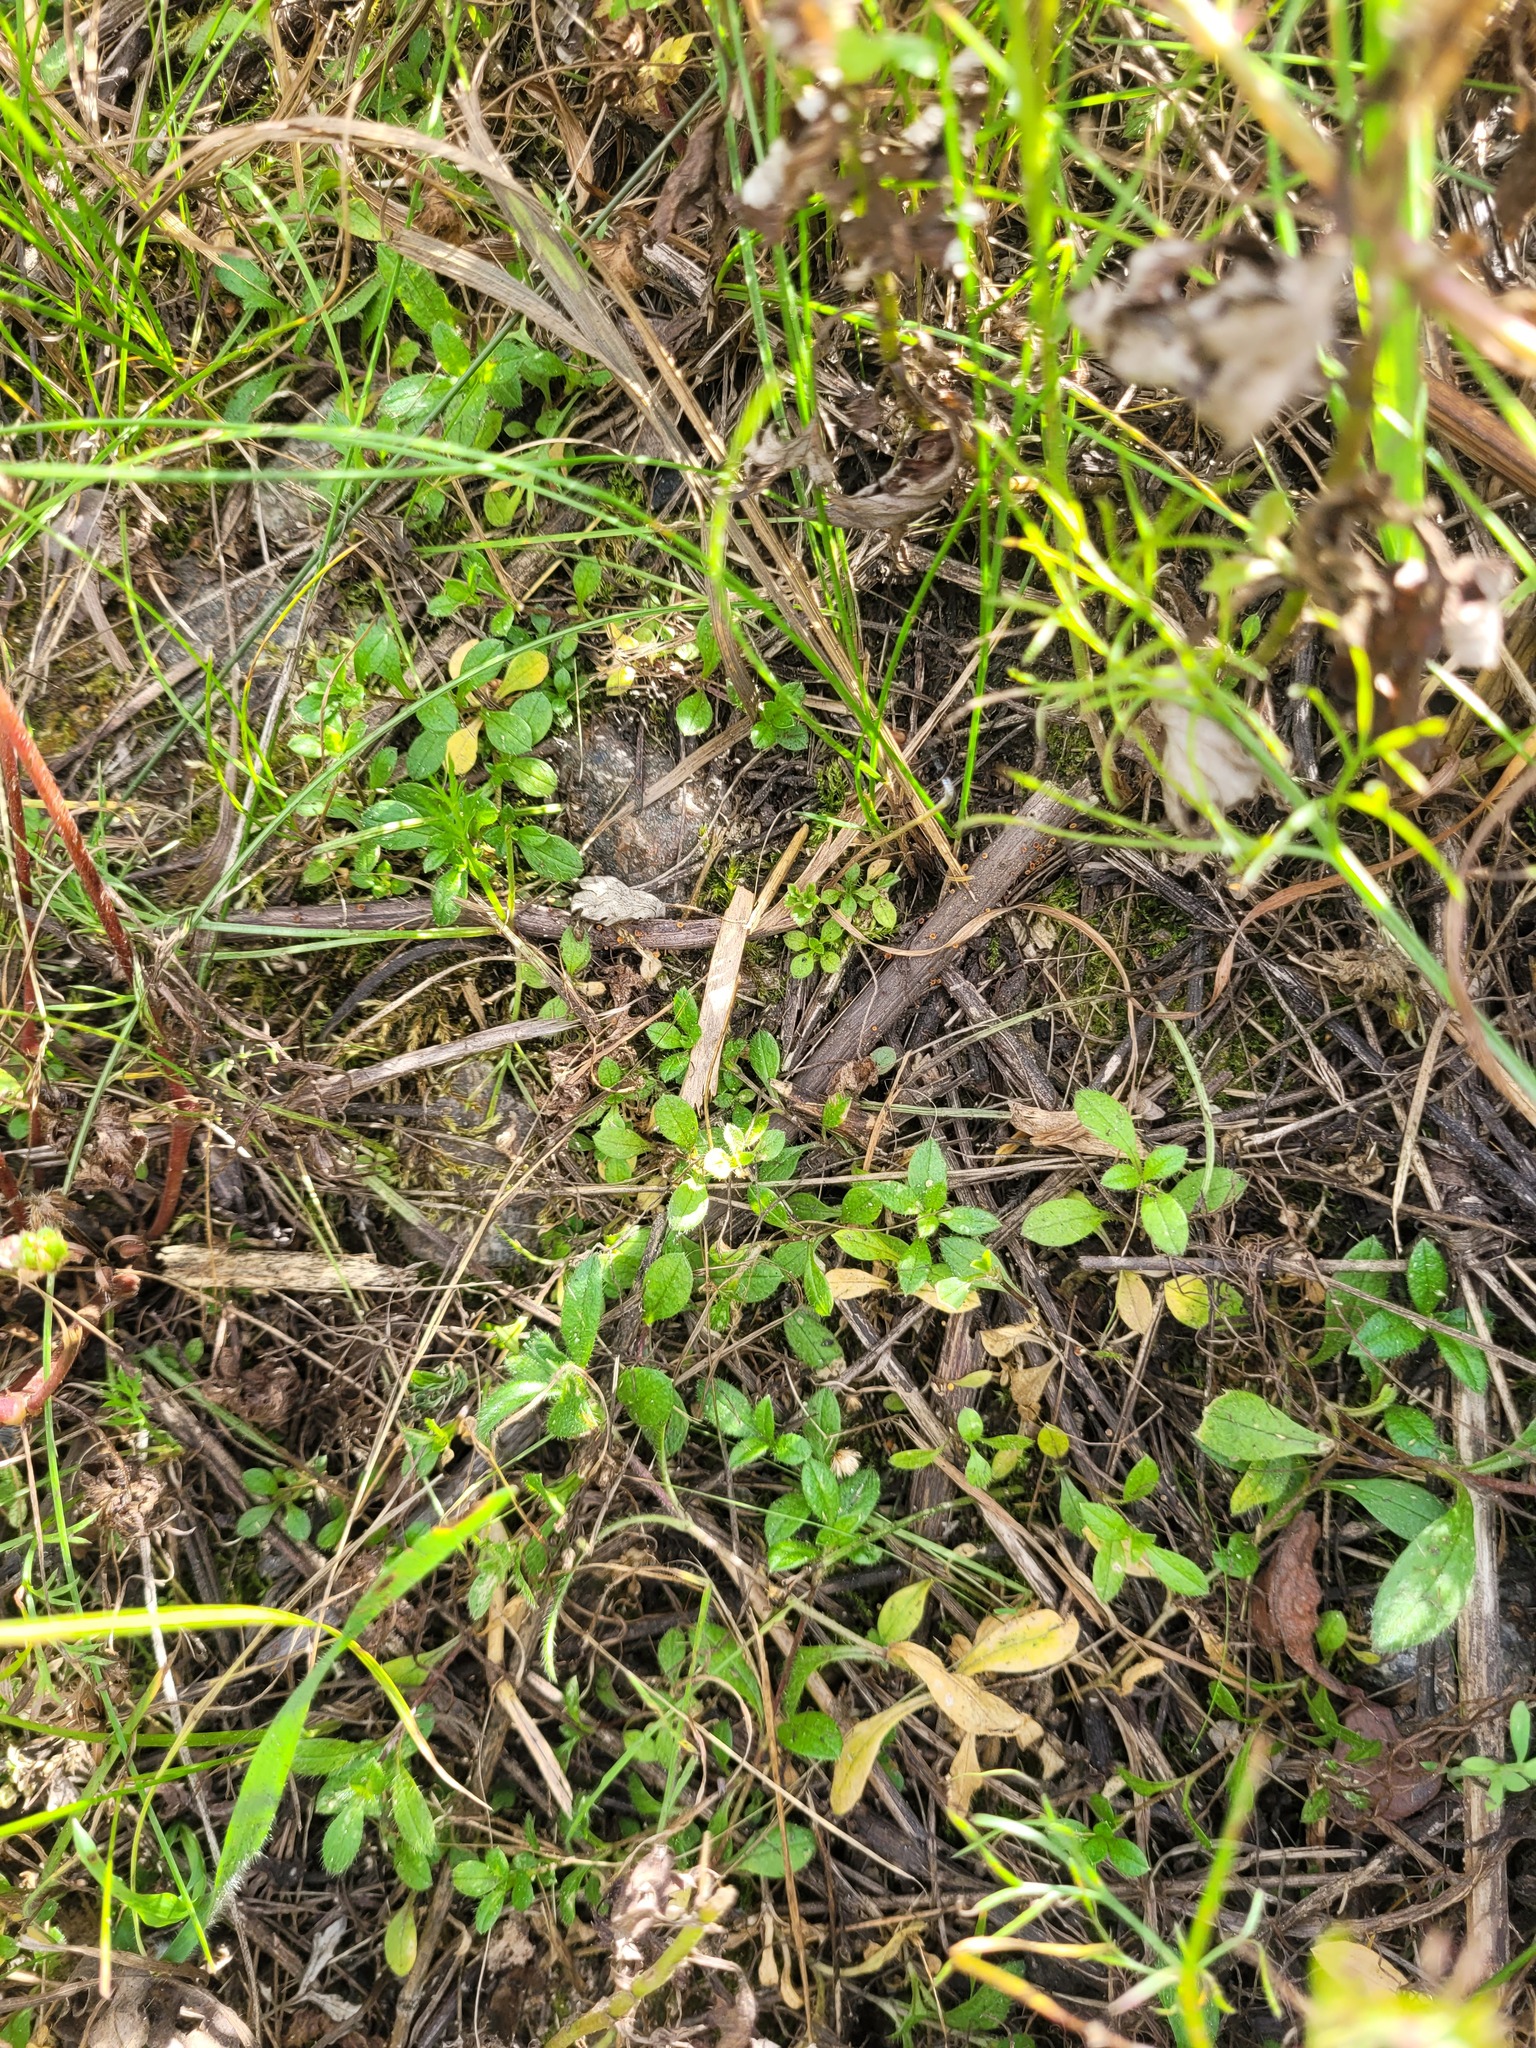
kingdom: Plantae
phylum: Tracheophyta
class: Magnoliopsida
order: Caryophyllales
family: Caryophyllaceae
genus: Cerastium
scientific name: Cerastium holosteoides
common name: Big chickweed
